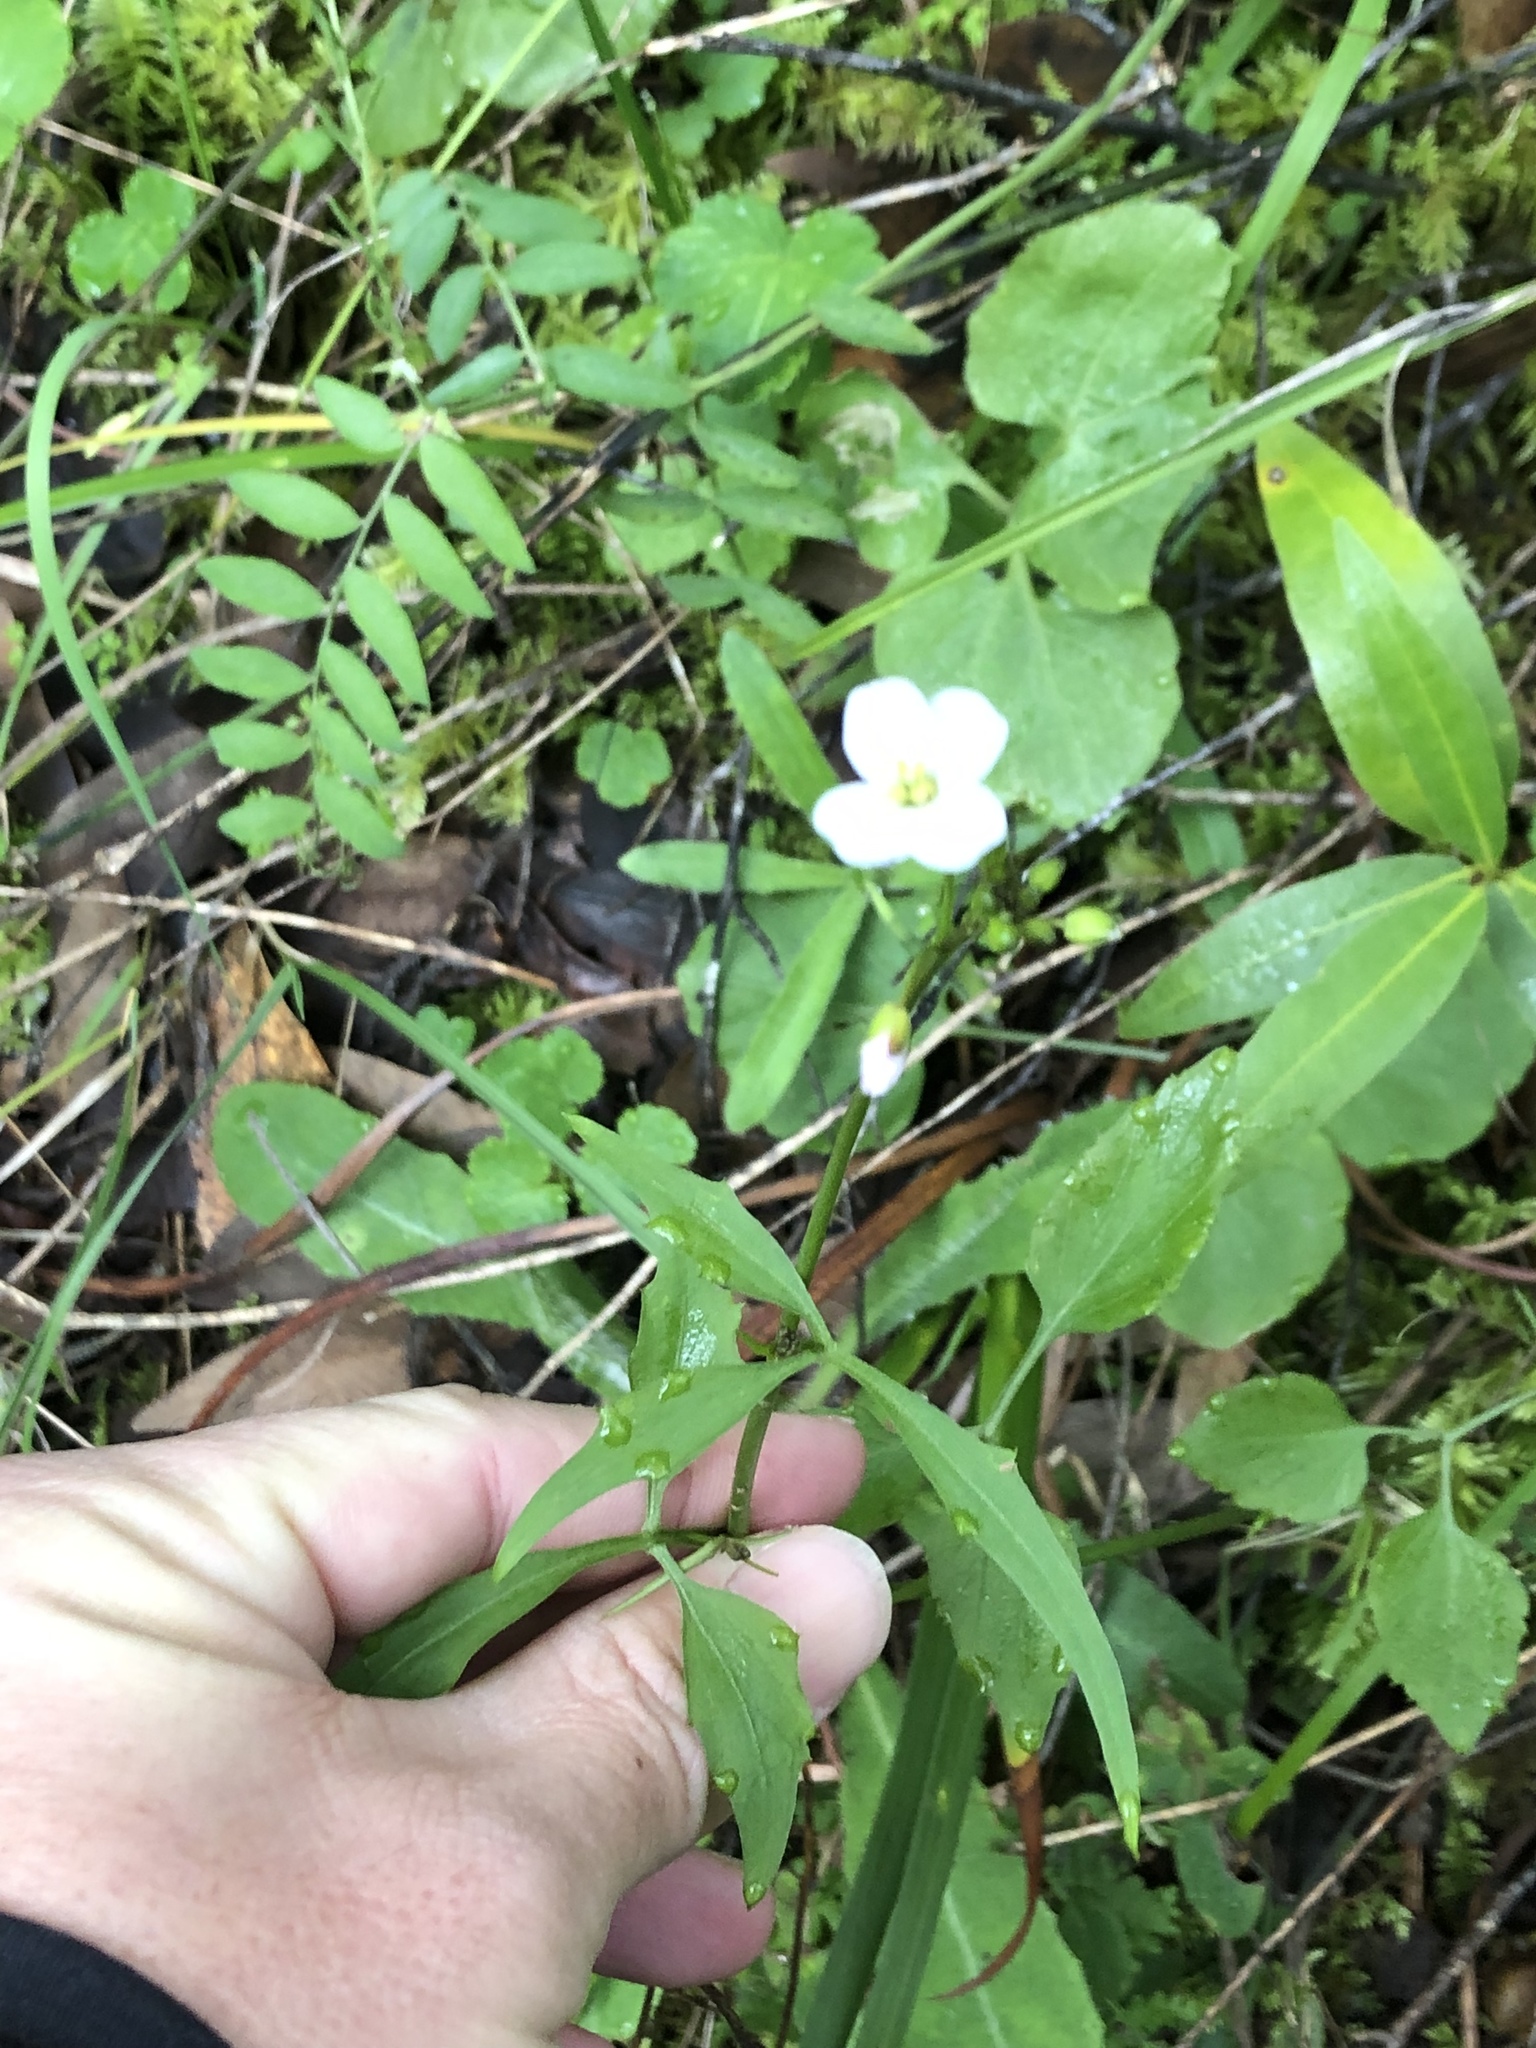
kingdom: Plantae
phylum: Tracheophyta
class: Magnoliopsida
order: Brassicales
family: Brassicaceae
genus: Cardamine
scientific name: Cardamine californica
